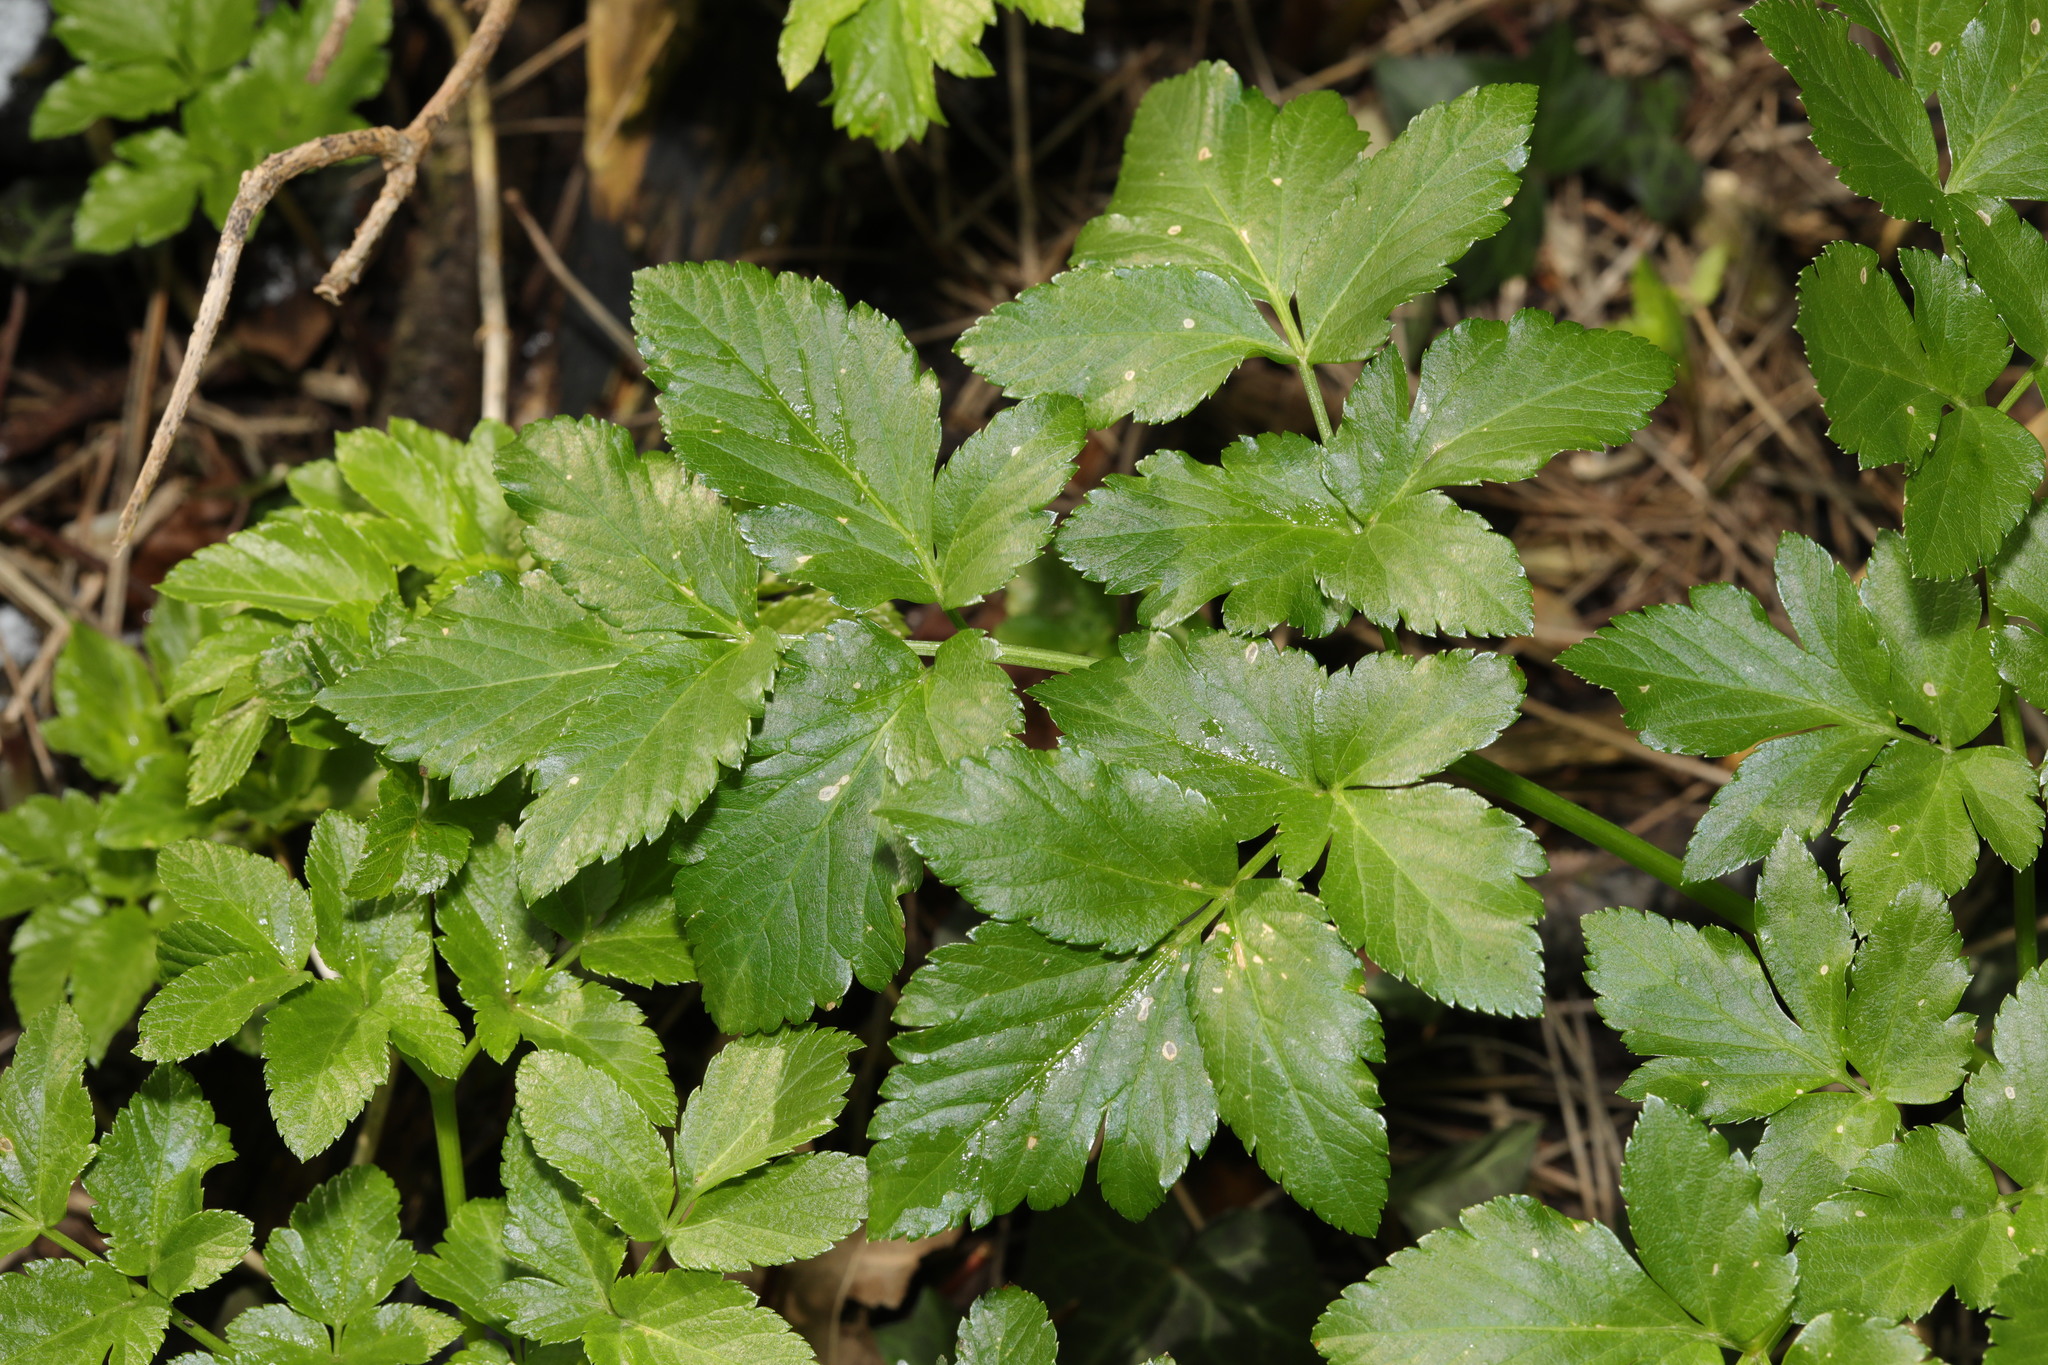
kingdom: Plantae
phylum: Tracheophyta
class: Magnoliopsida
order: Apiales
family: Apiaceae
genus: Smyrnium
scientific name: Smyrnium olusatrum
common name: Alexanders
